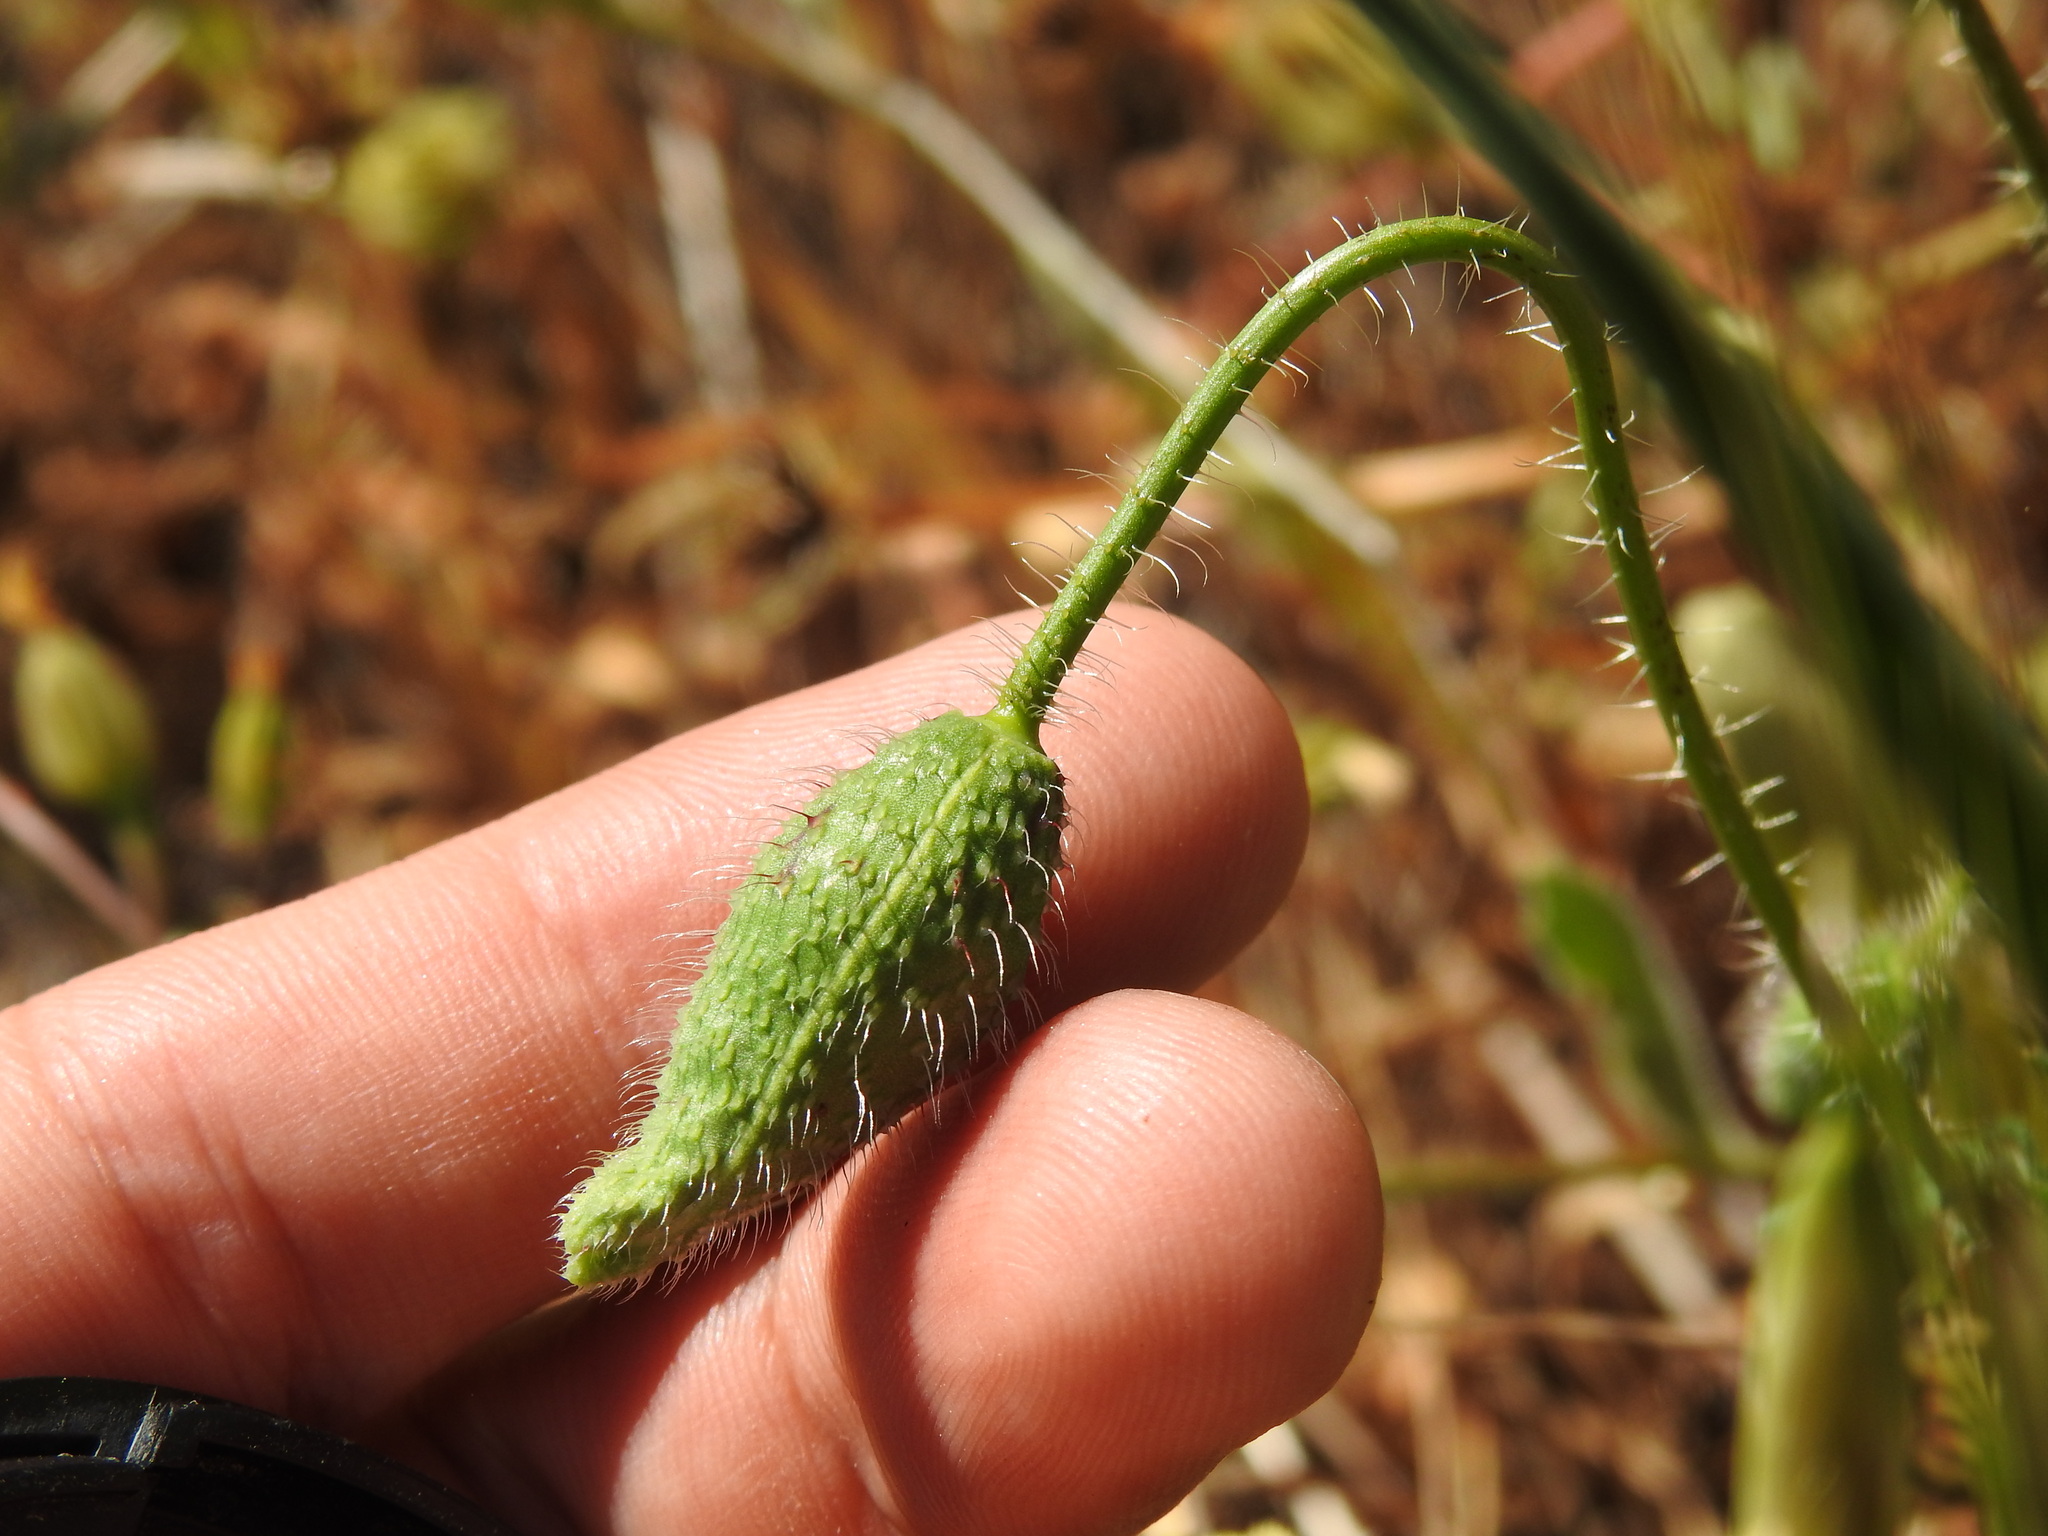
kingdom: Plantae
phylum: Tracheophyta
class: Magnoliopsida
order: Ranunculales
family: Papaveraceae
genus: Papaver
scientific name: Papaver rhoeas
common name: Corn poppy
